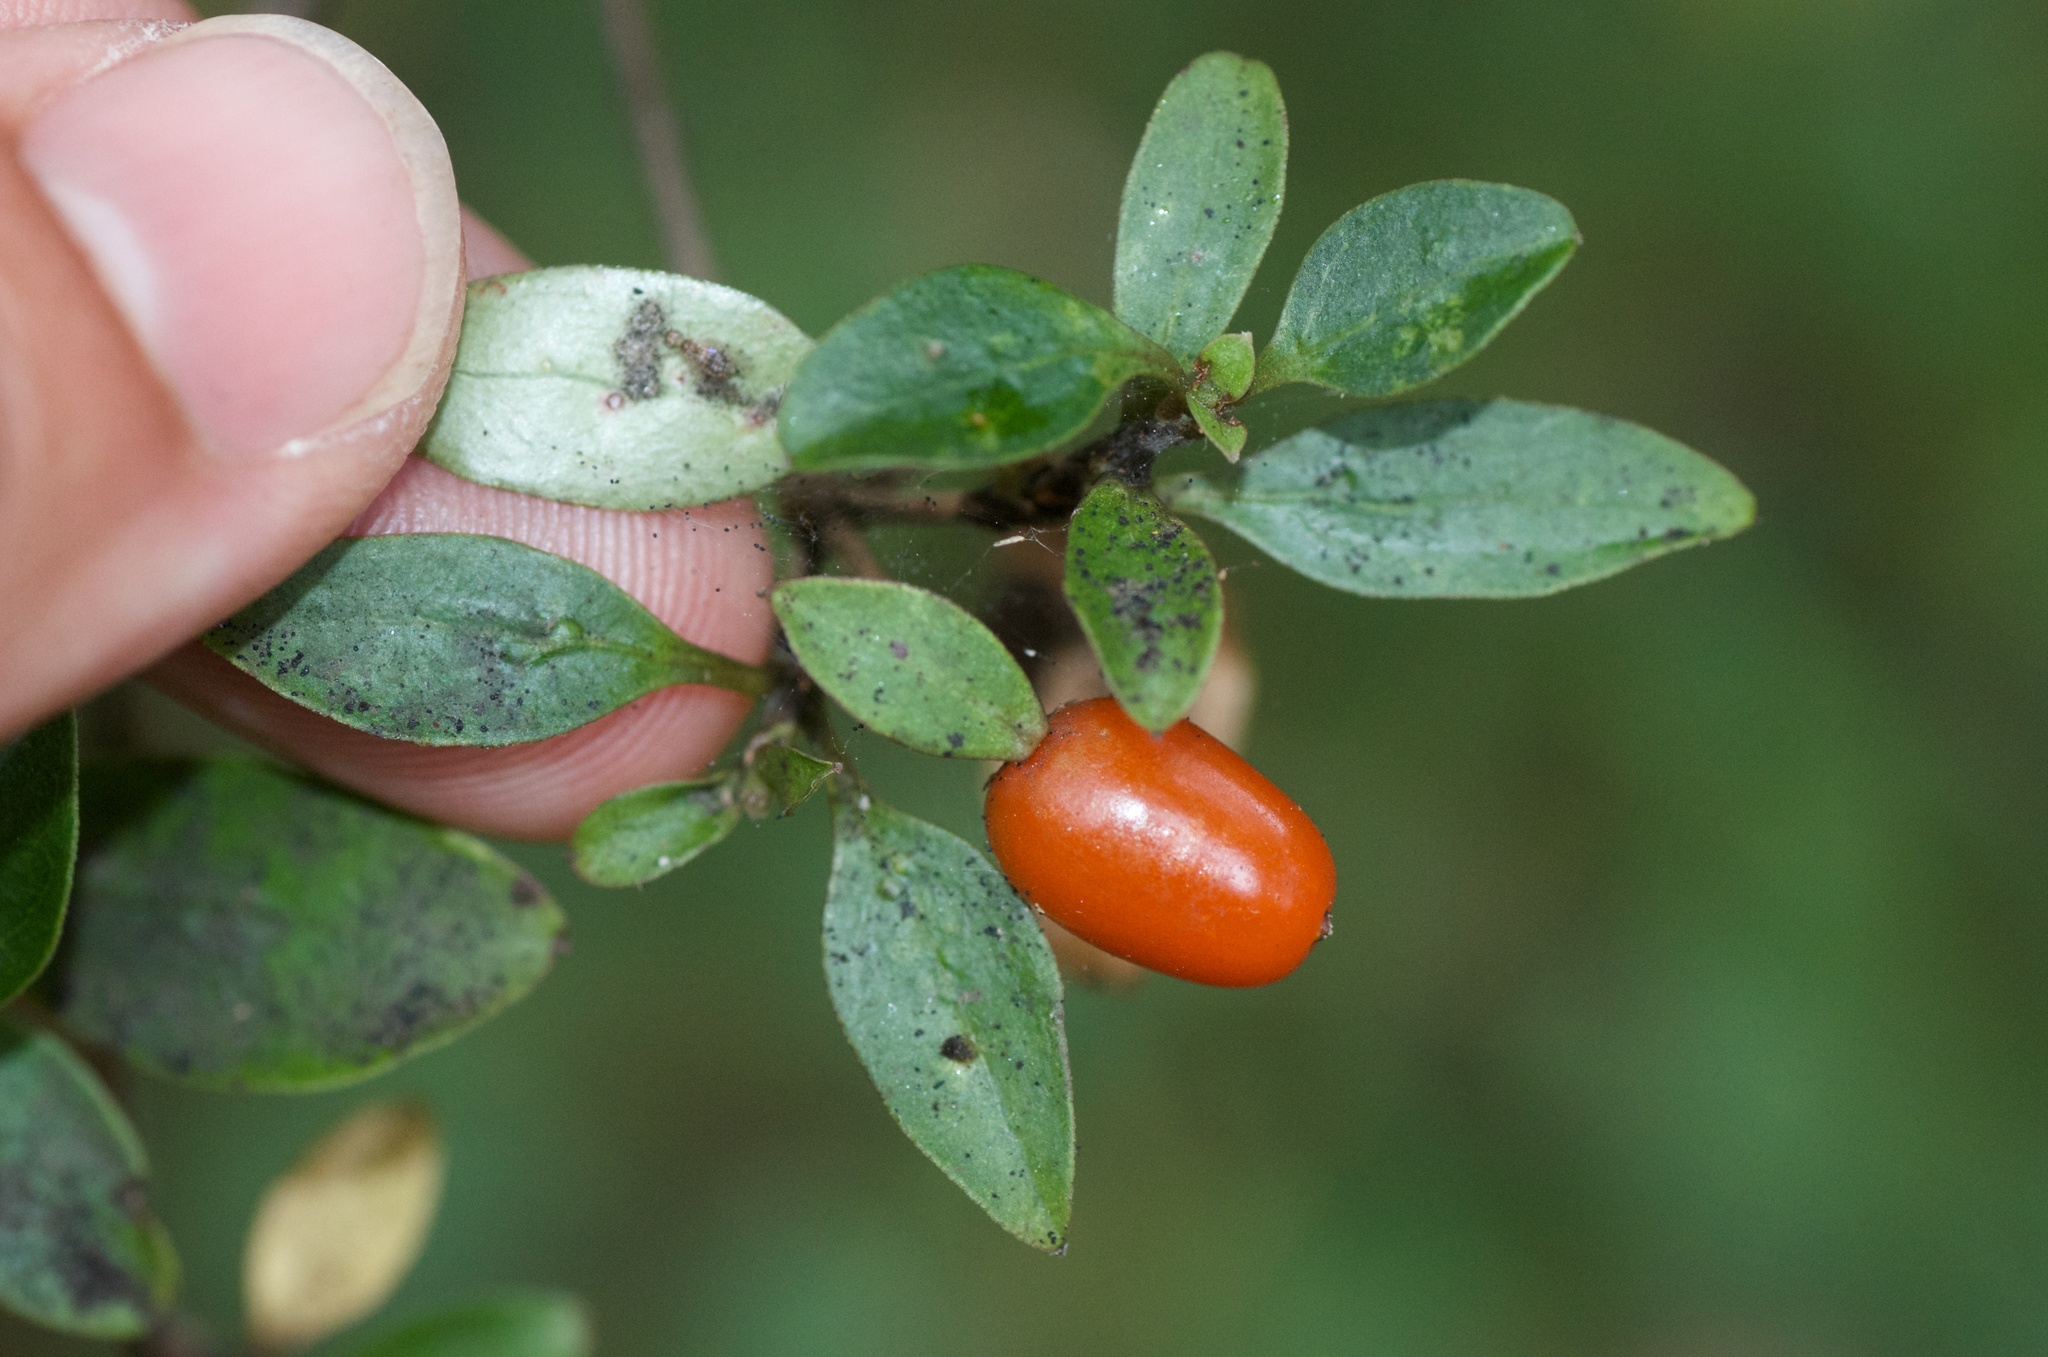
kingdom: Plantae
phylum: Tracheophyta
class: Magnoliopsida
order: Gentianales
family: Rubiaceae
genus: Coprosma
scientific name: Coprosma foetidissima
